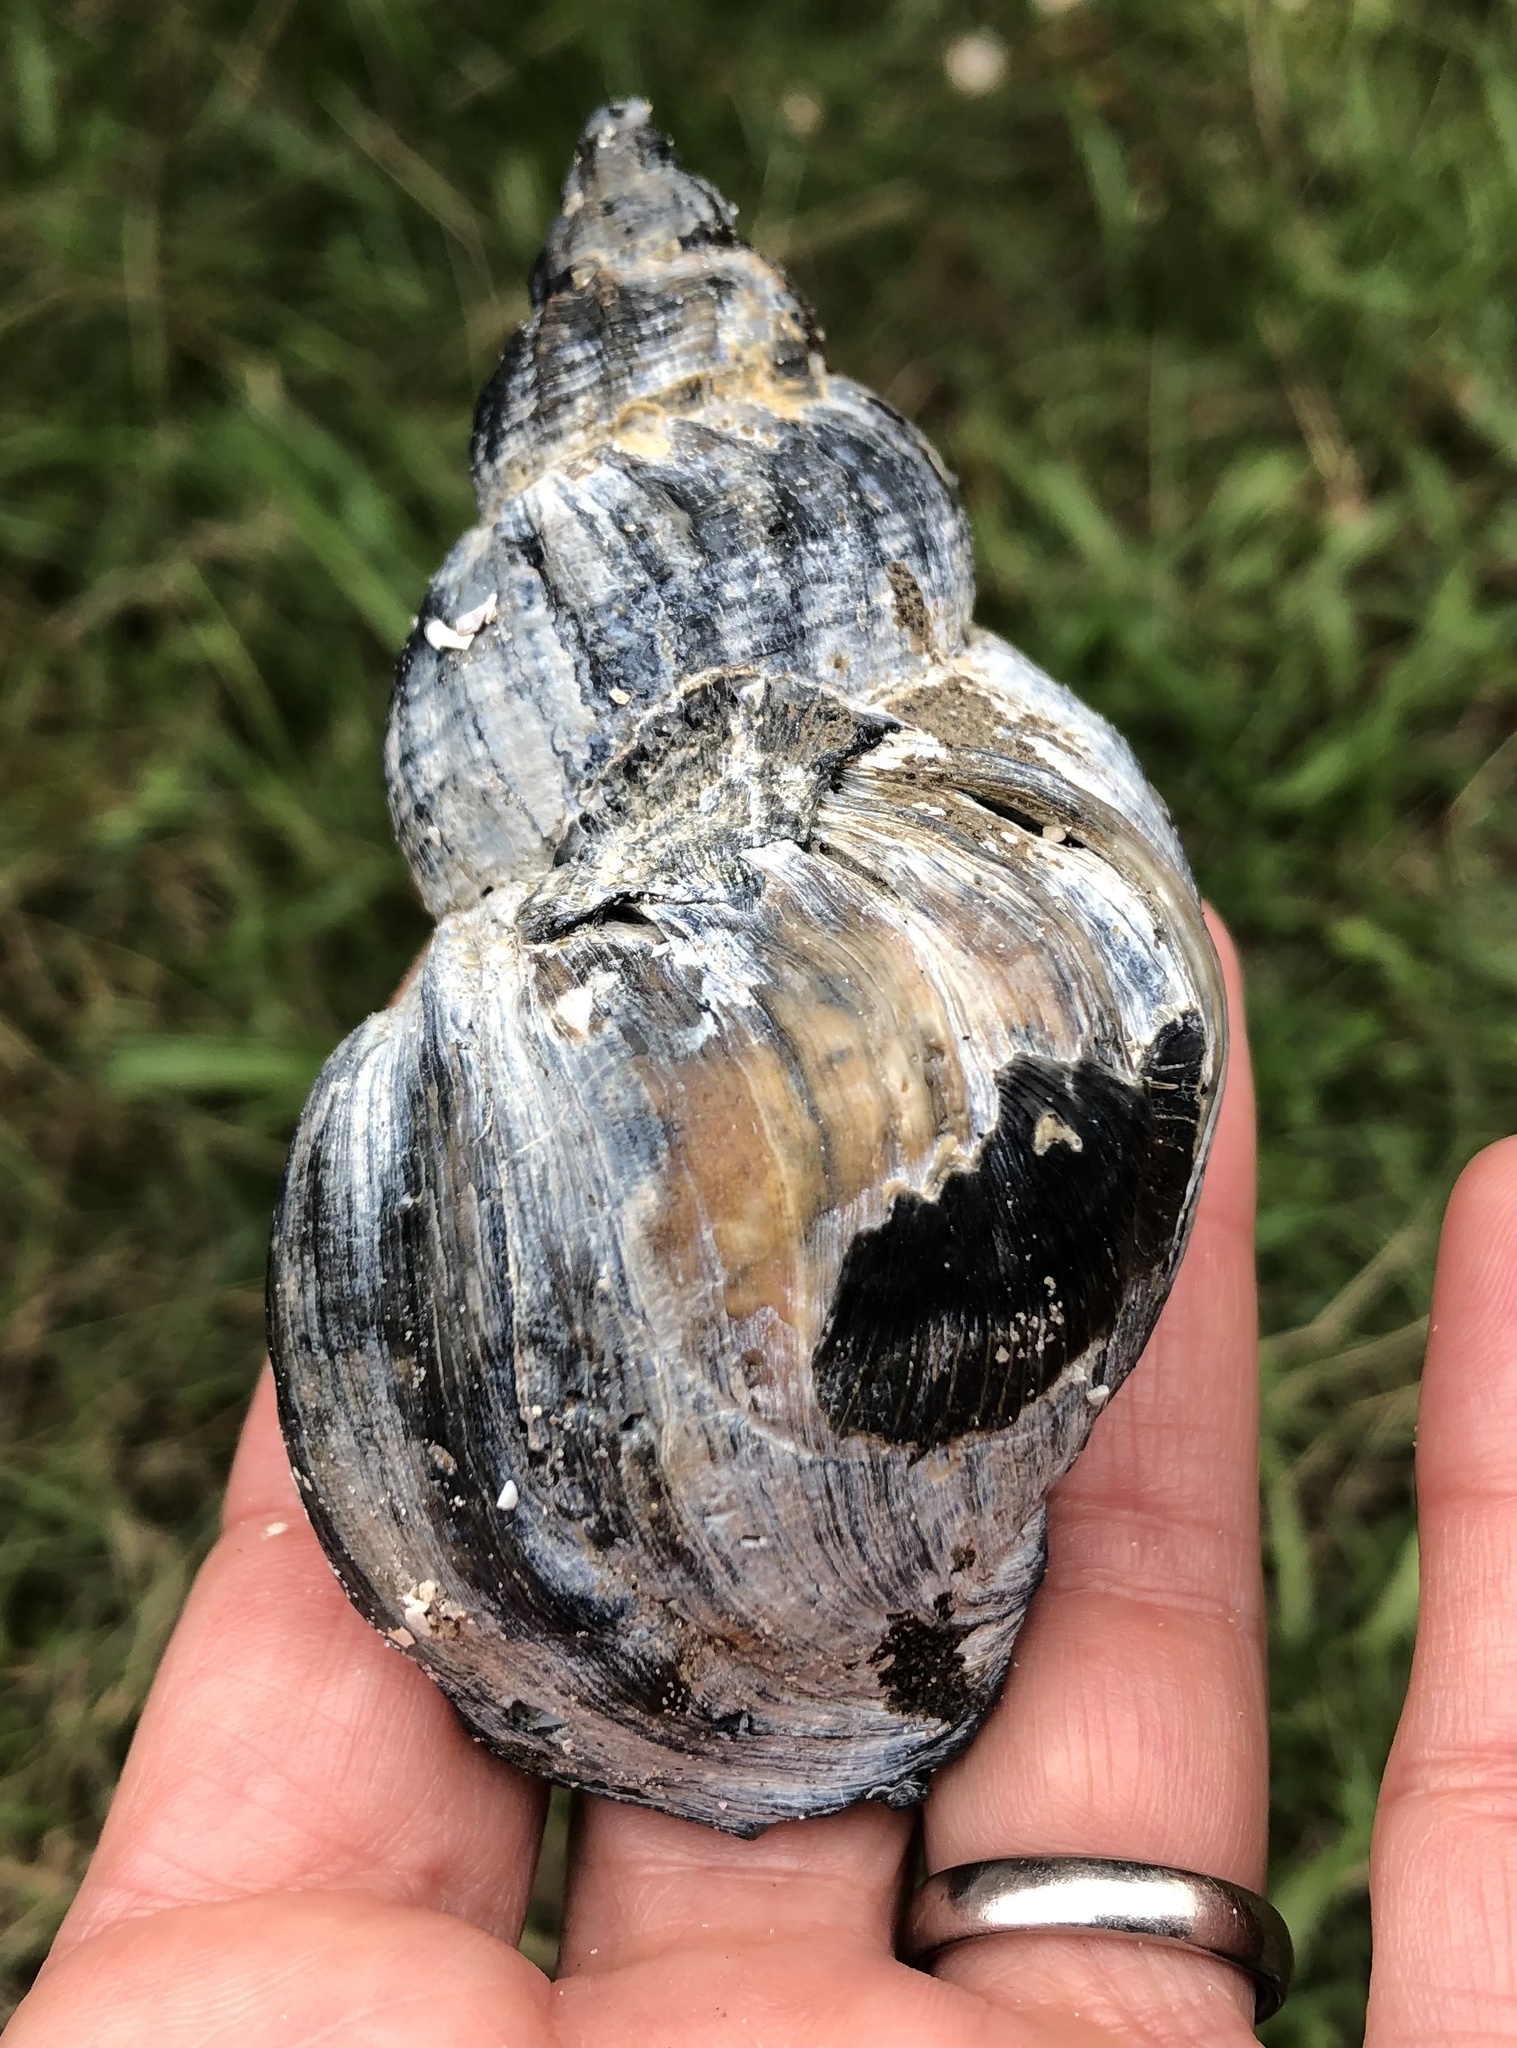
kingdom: Animalia
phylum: Mollusca
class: Gastropoda
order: Neogastropoda
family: Buccinidae
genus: Buccinum
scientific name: Buccinum undatum
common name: Common whelk
